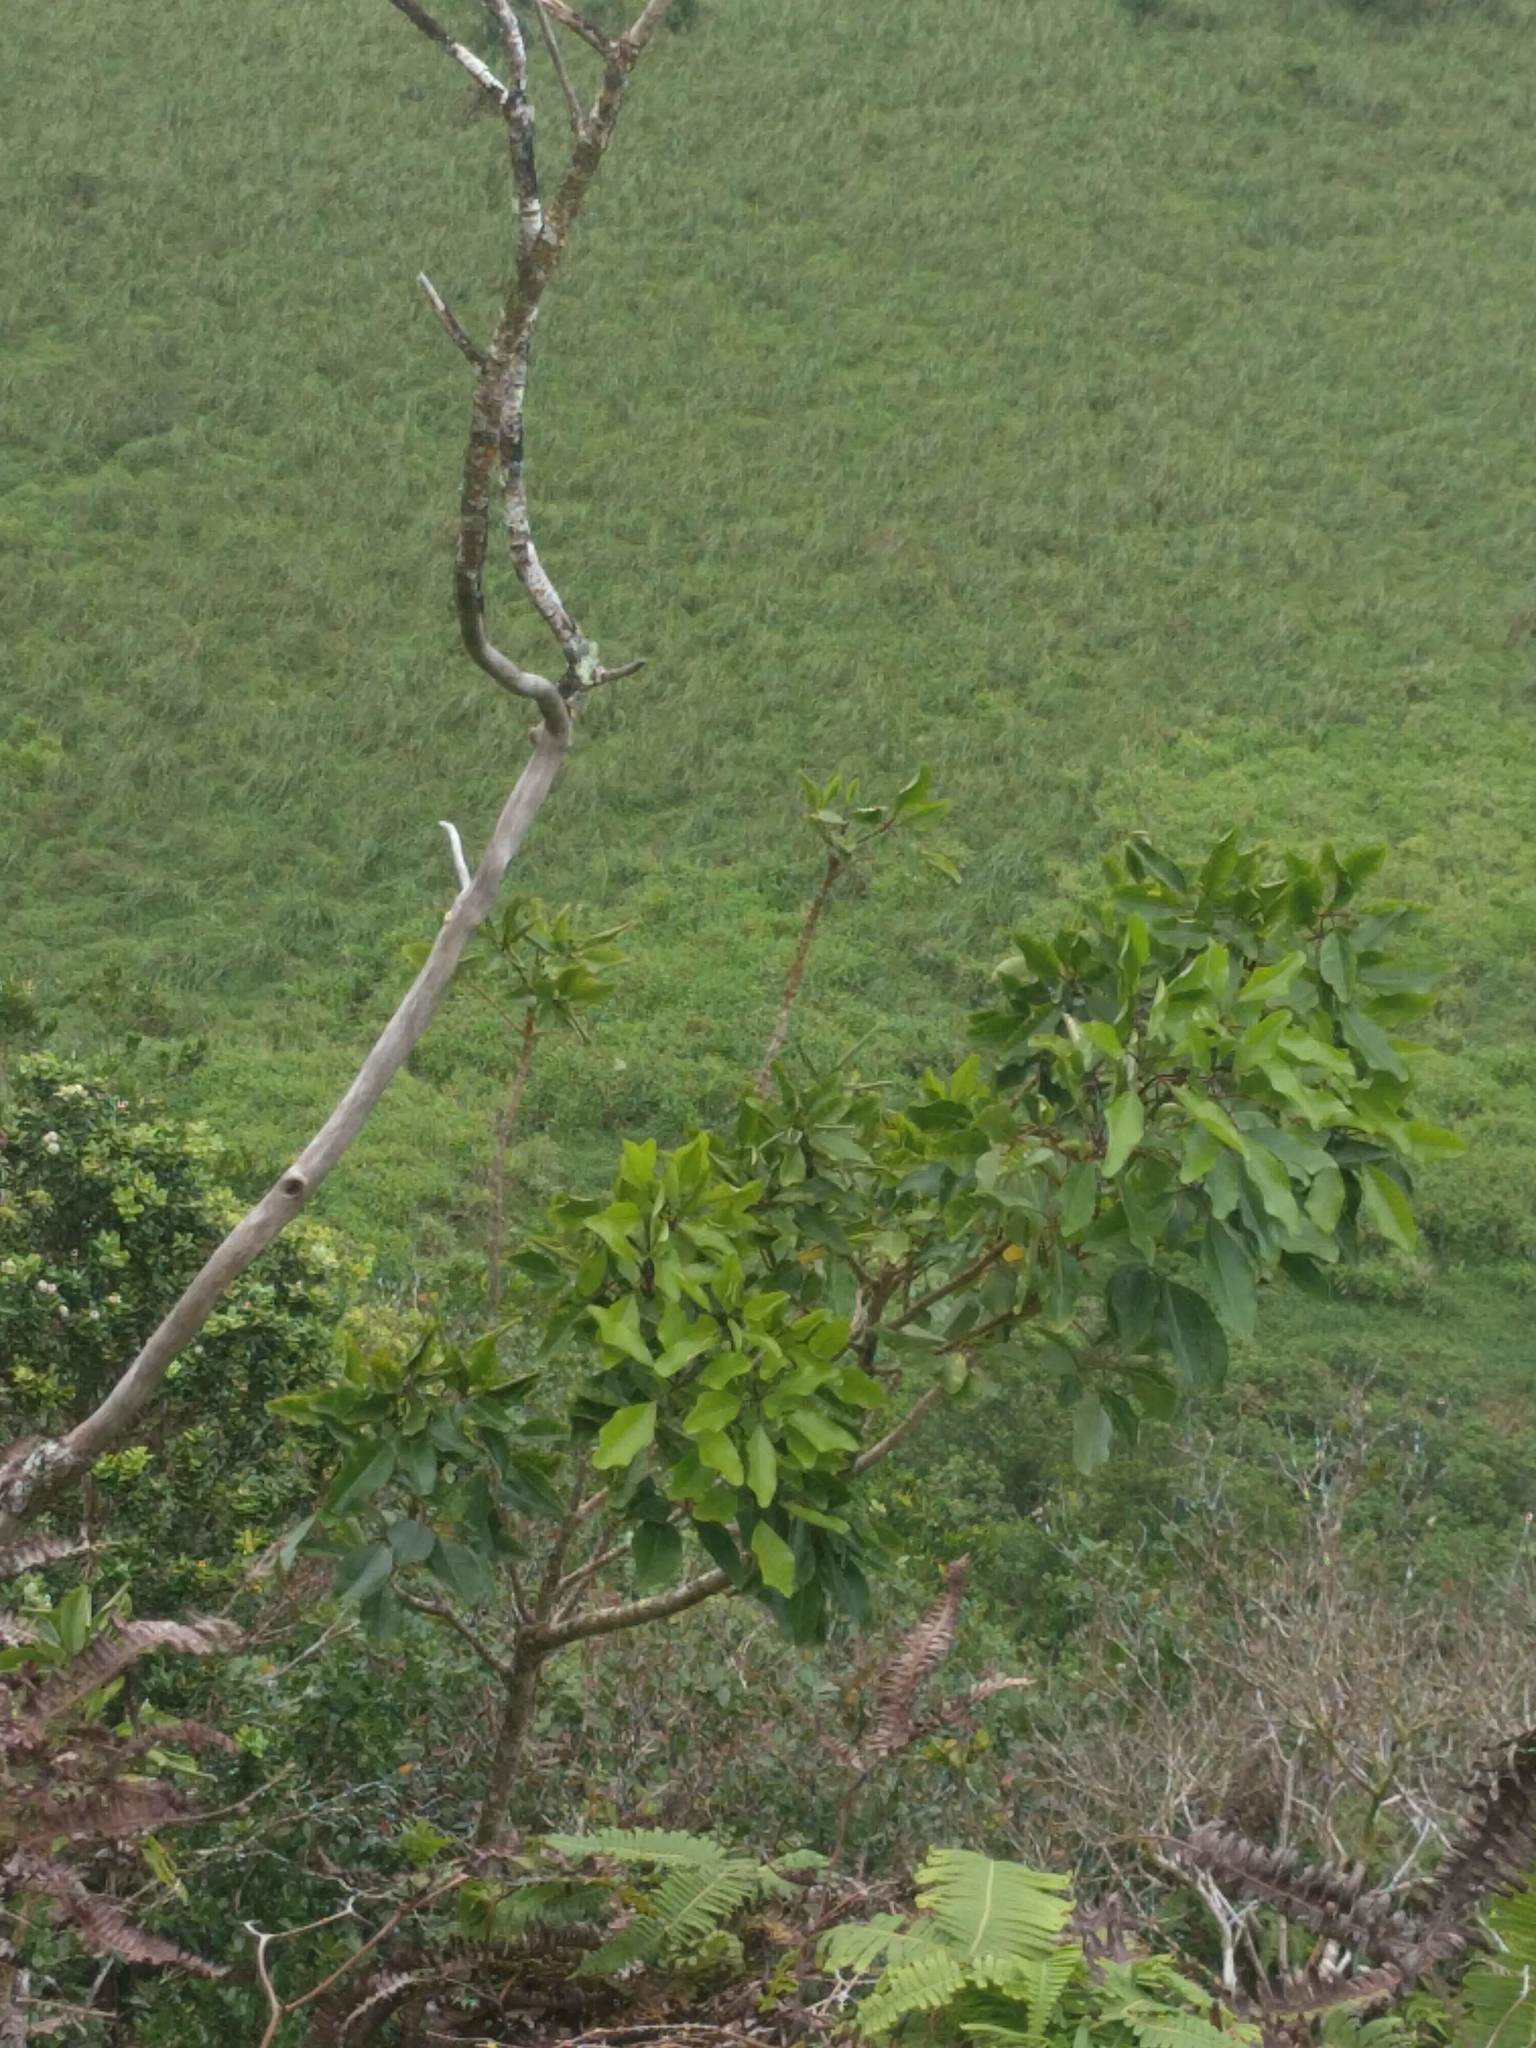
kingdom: Plantae
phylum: Tracheophyta
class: Magnoliopsida
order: Apiales
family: Araliaceae
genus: Cheirodendron
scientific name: Cheirodendron trigynum
